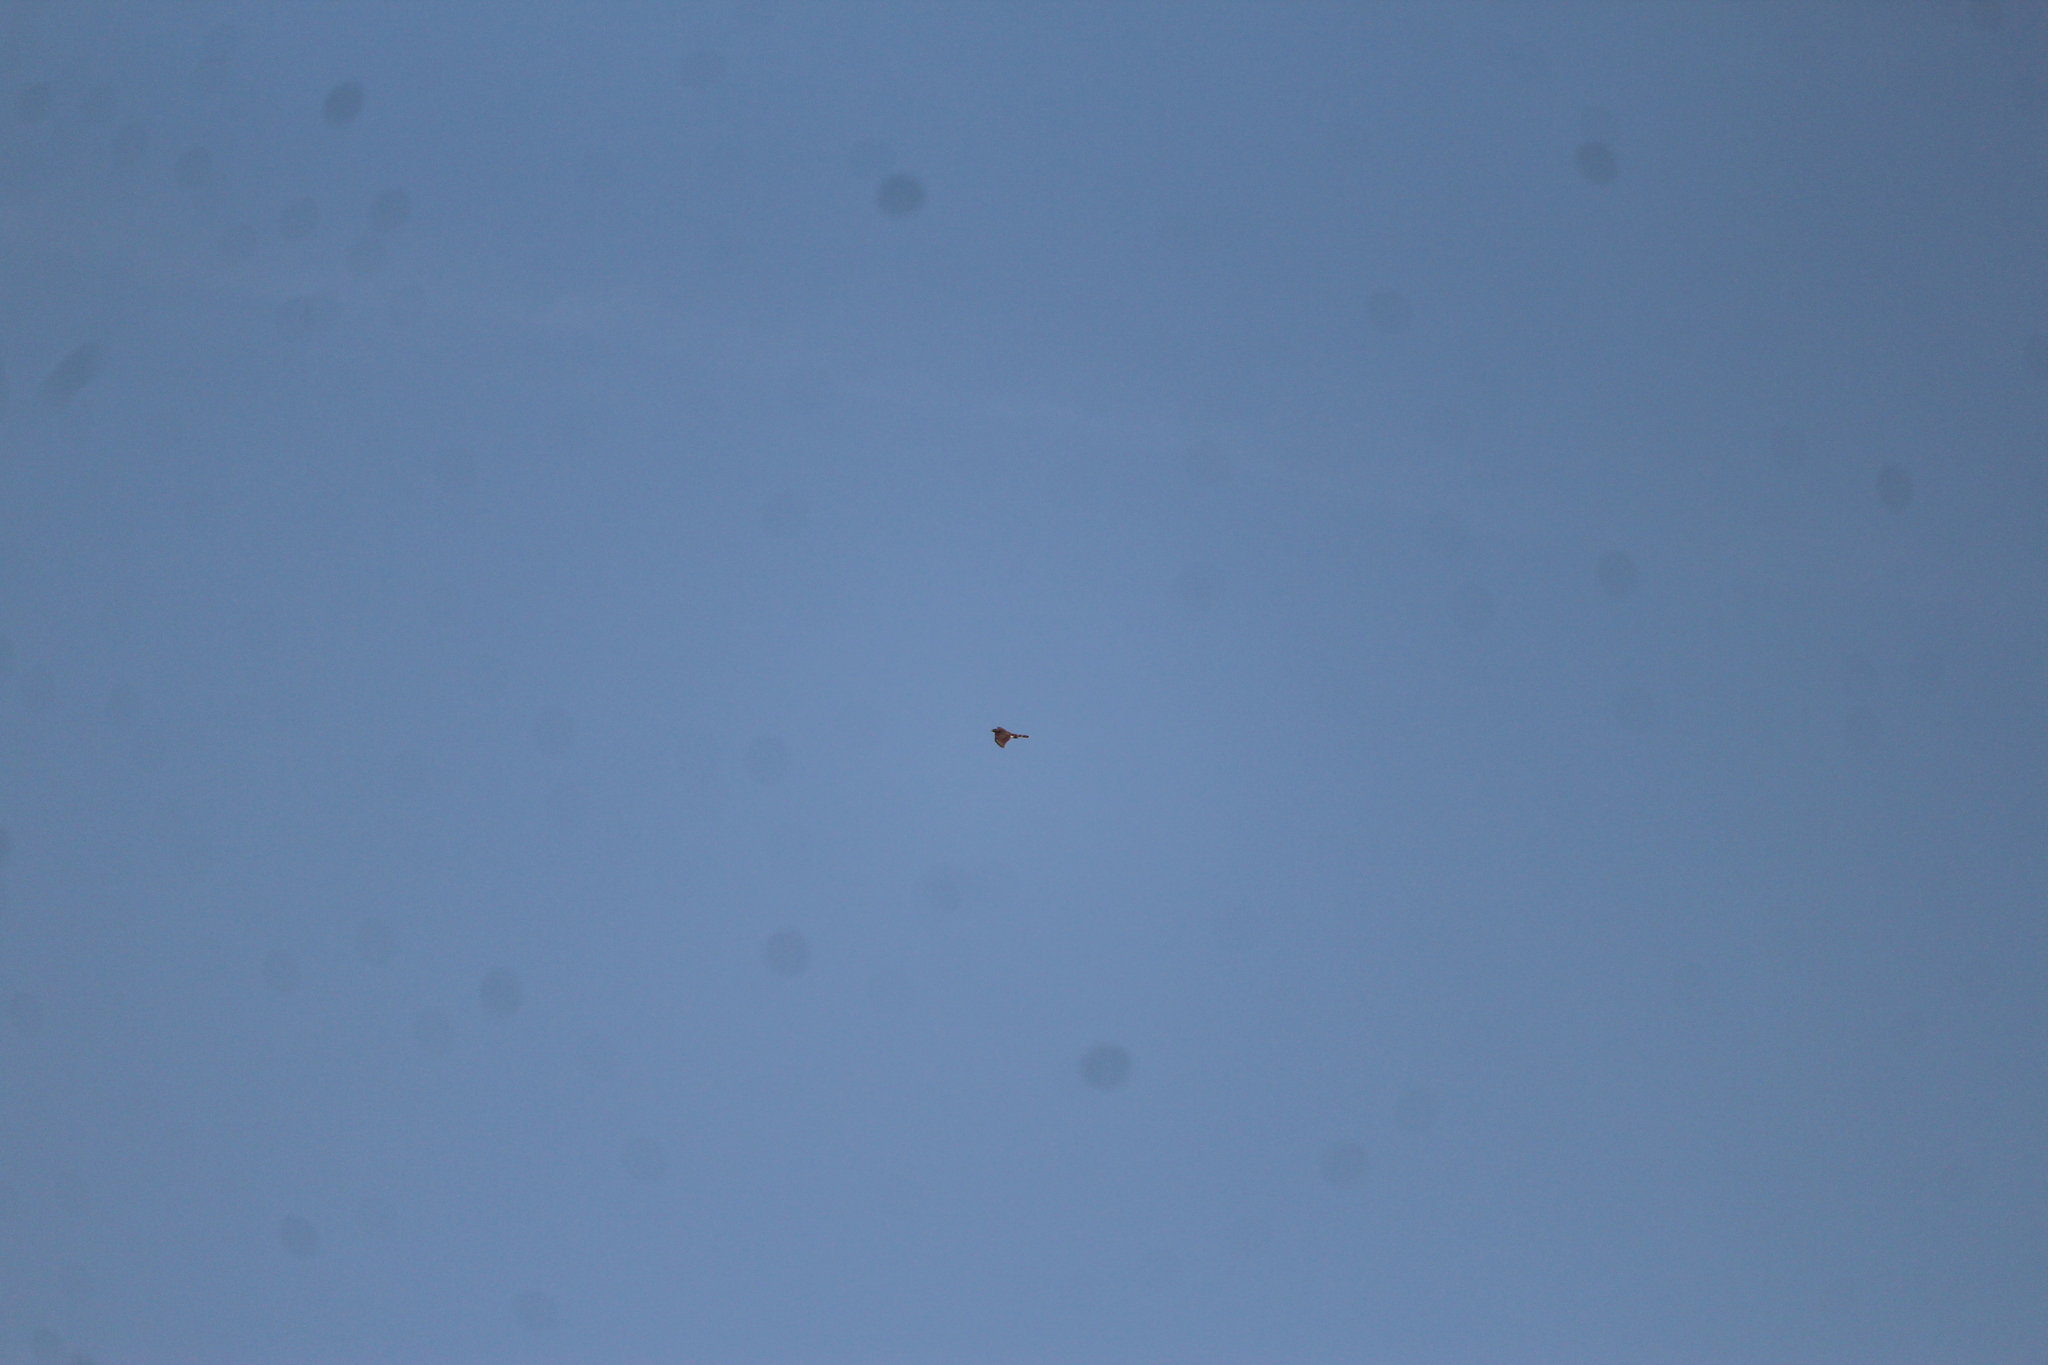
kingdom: Animalia
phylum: Chordata
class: Aves
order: Accipitriformes
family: Accipitridae
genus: Accipiter
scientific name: Accipiter cooperii
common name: Cooper's hawk
